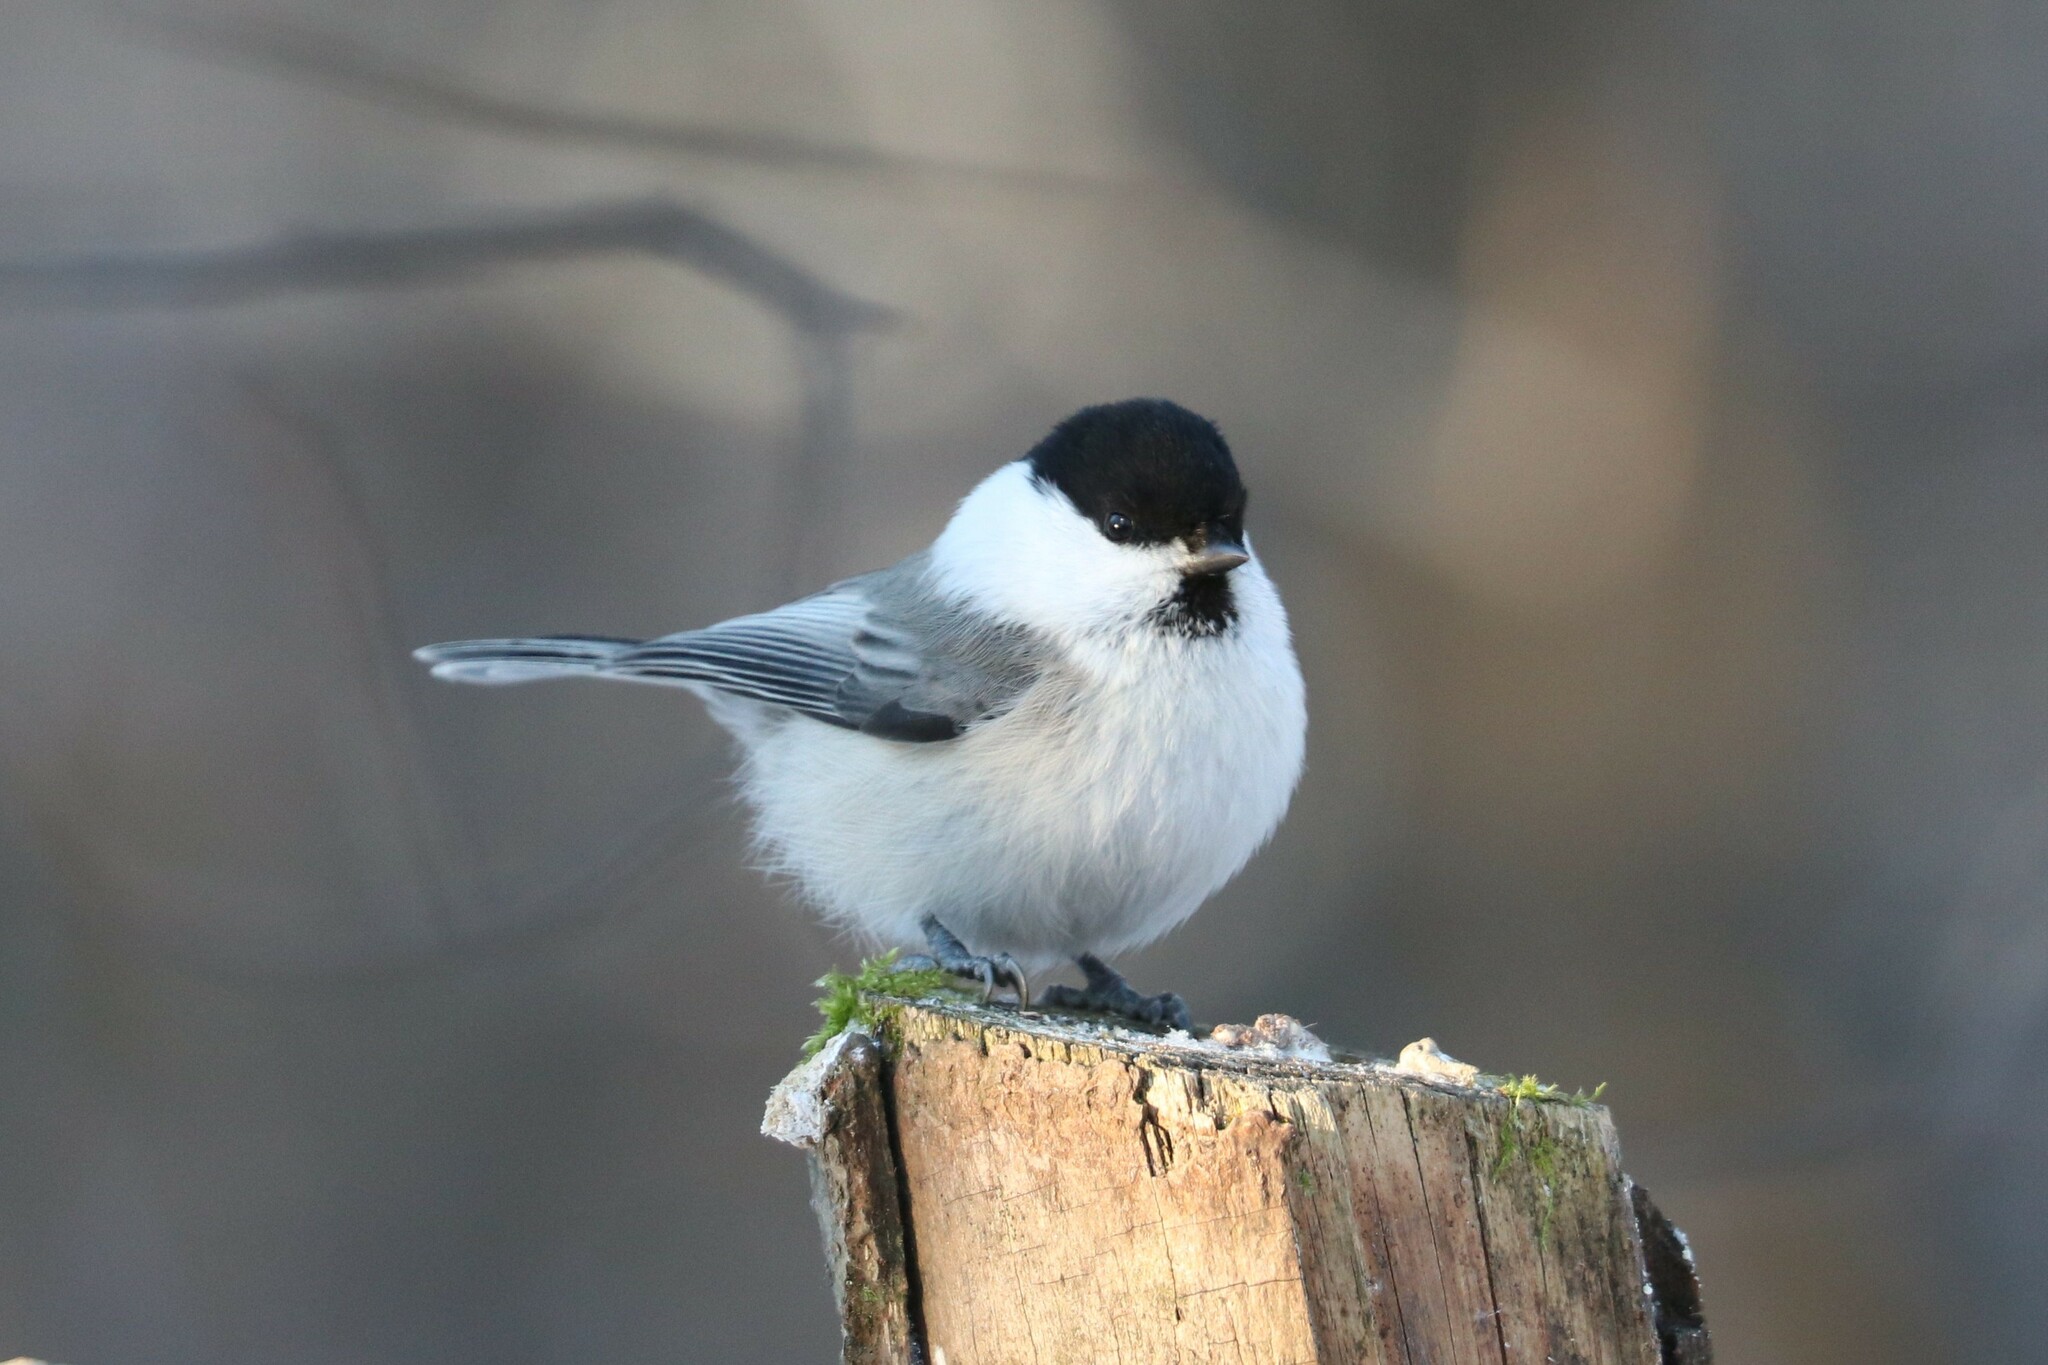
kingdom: Animalia
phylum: Chordata
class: Aves
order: Passeriformes
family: Paridae
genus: Poecile
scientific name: Poecile montanus
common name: Willow tit
